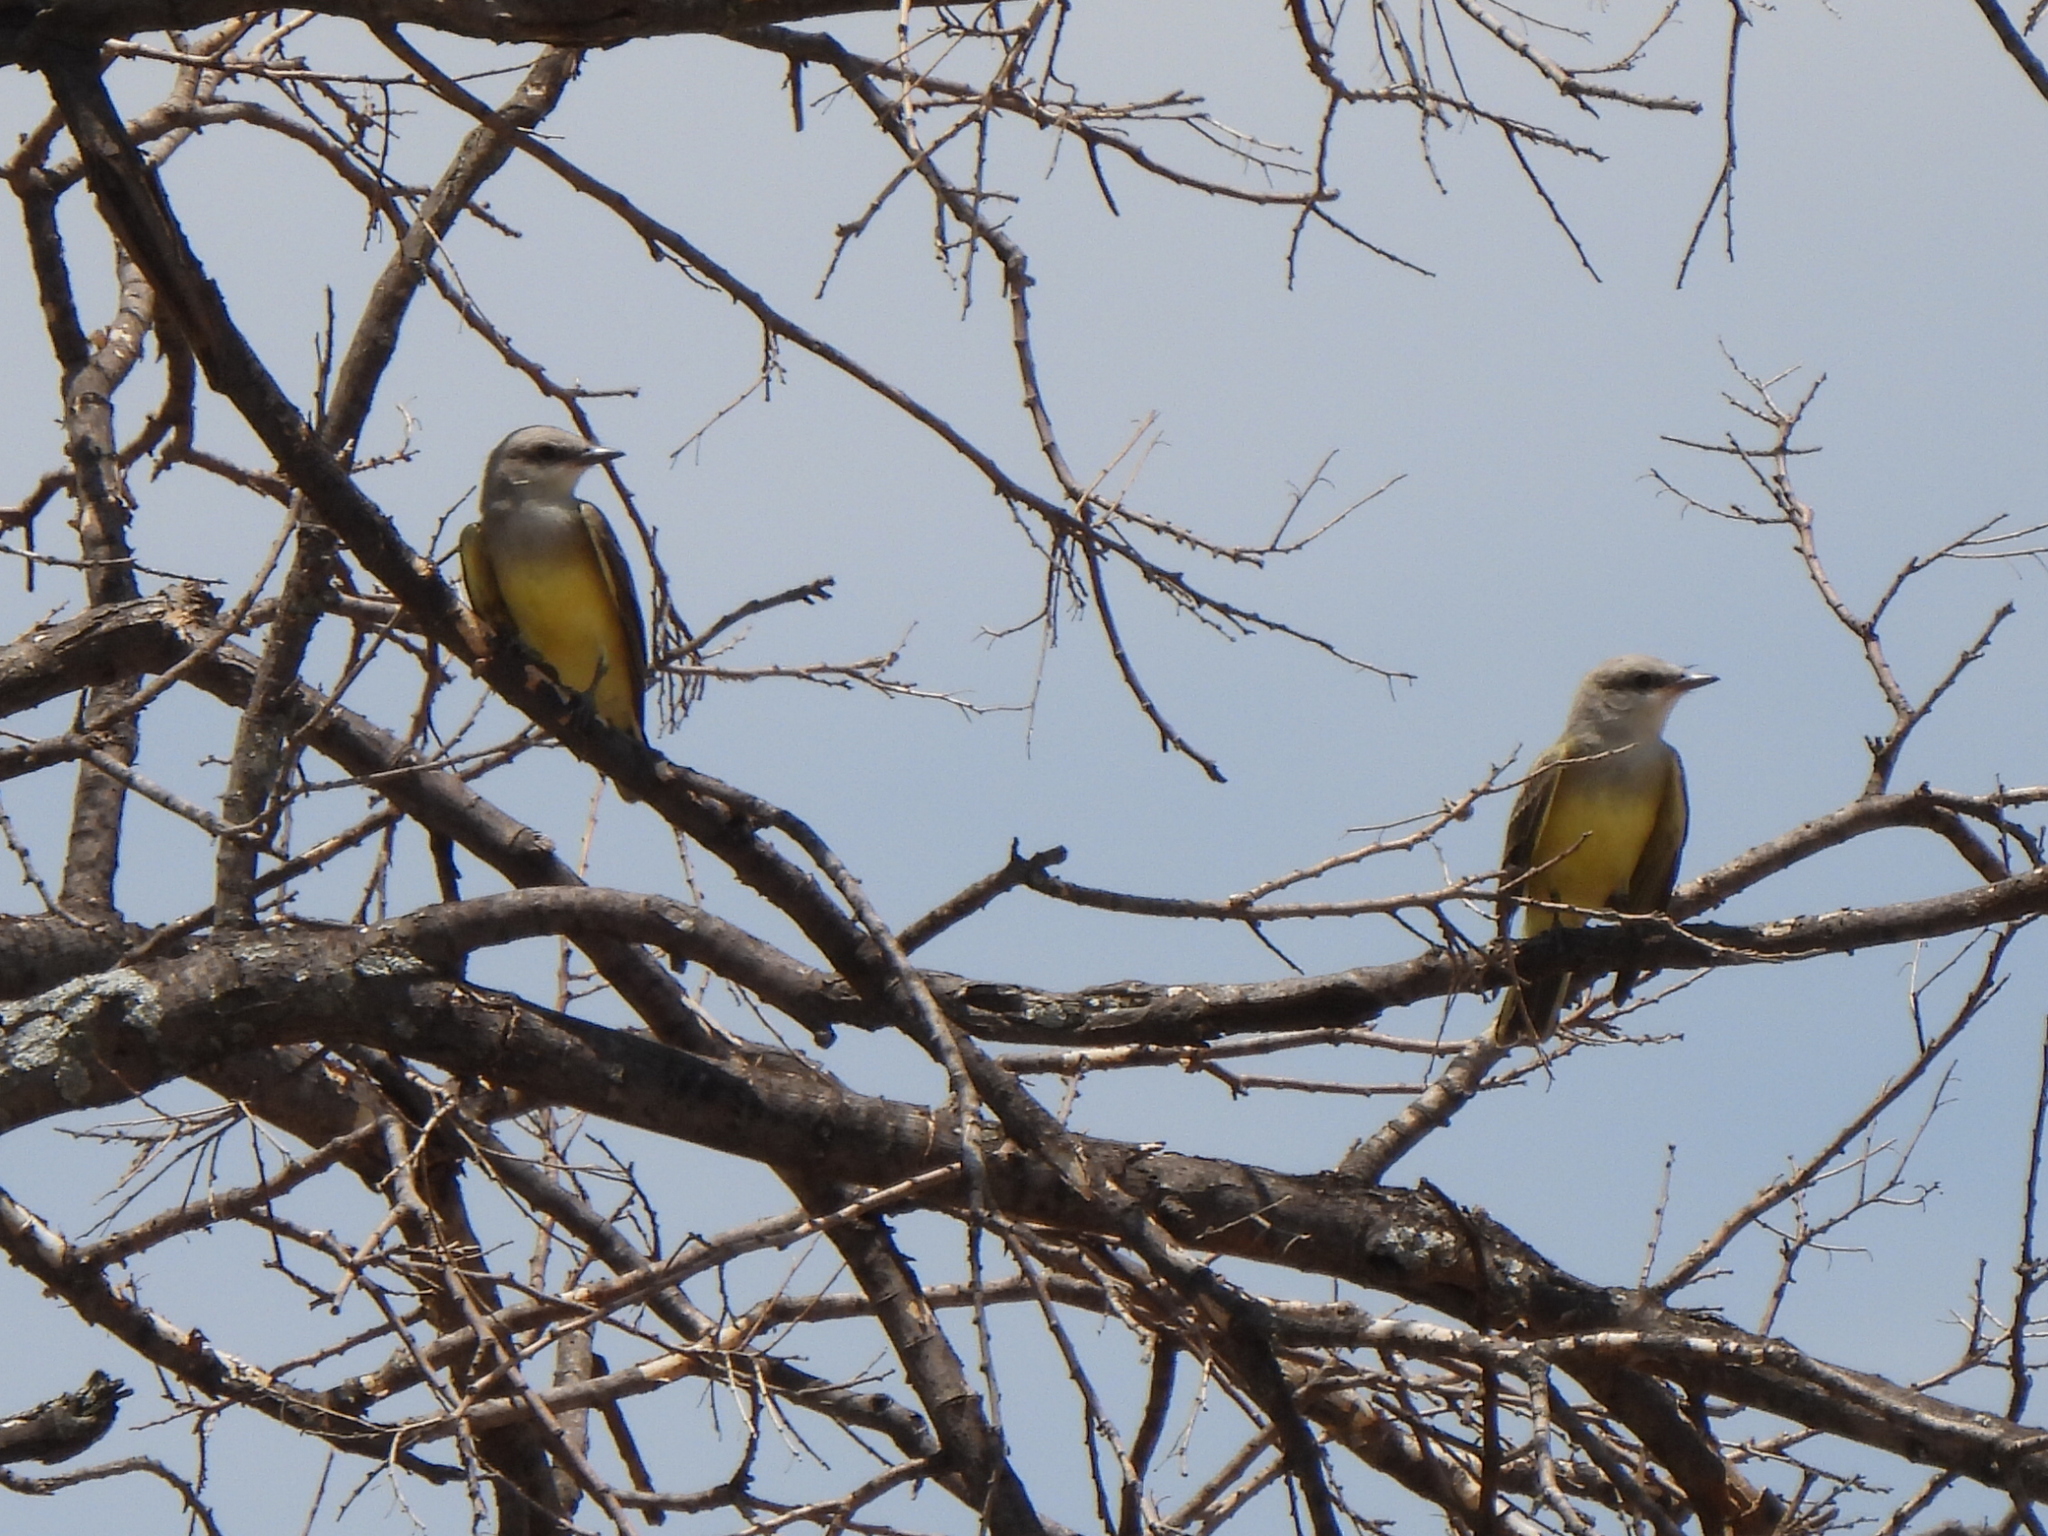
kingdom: Animalia
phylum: Chordata
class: Aves
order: Passeriformes
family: Tyrannidae
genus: Tyrannus
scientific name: Tyrannus verticalis
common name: Western kingbird
